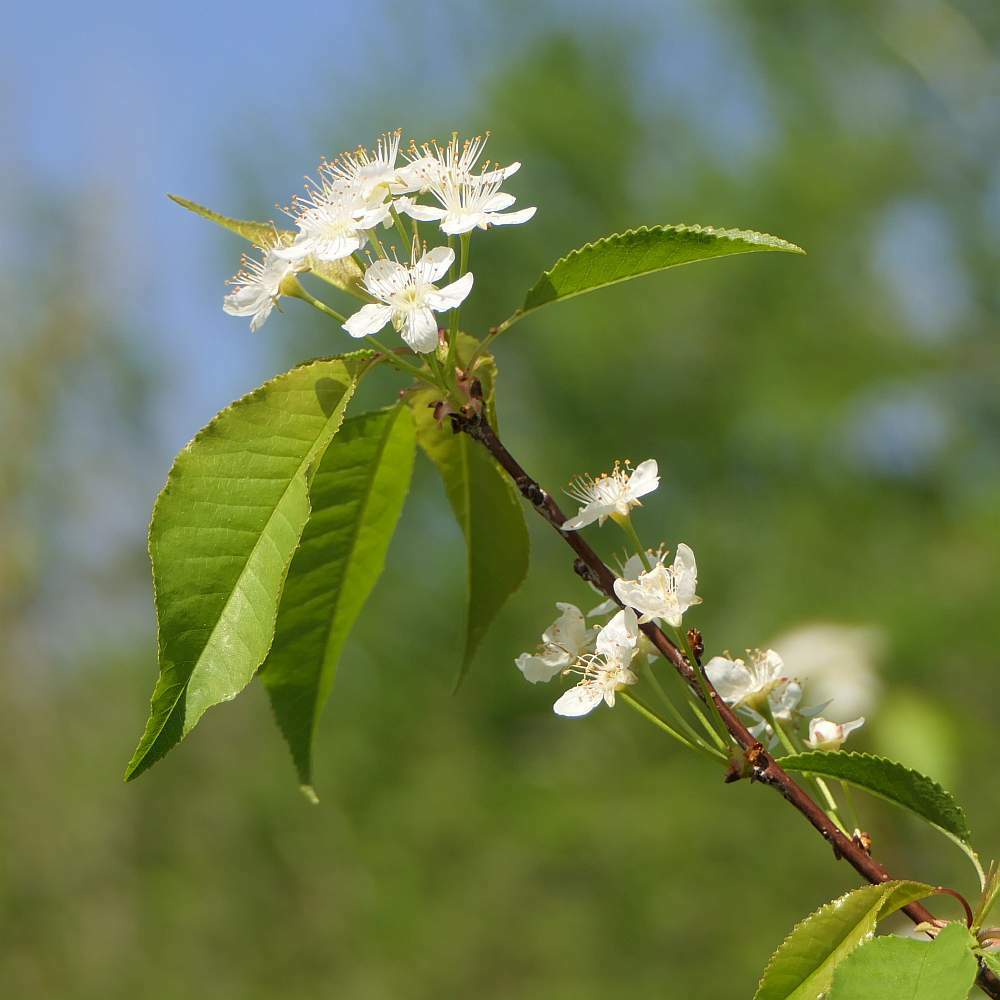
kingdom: Plantae
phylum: Tracheophyta
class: Magnoliopsida
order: Rosales
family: Rosaceae
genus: Prunus
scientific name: Prunus pensylvanica
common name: Pin cherry
